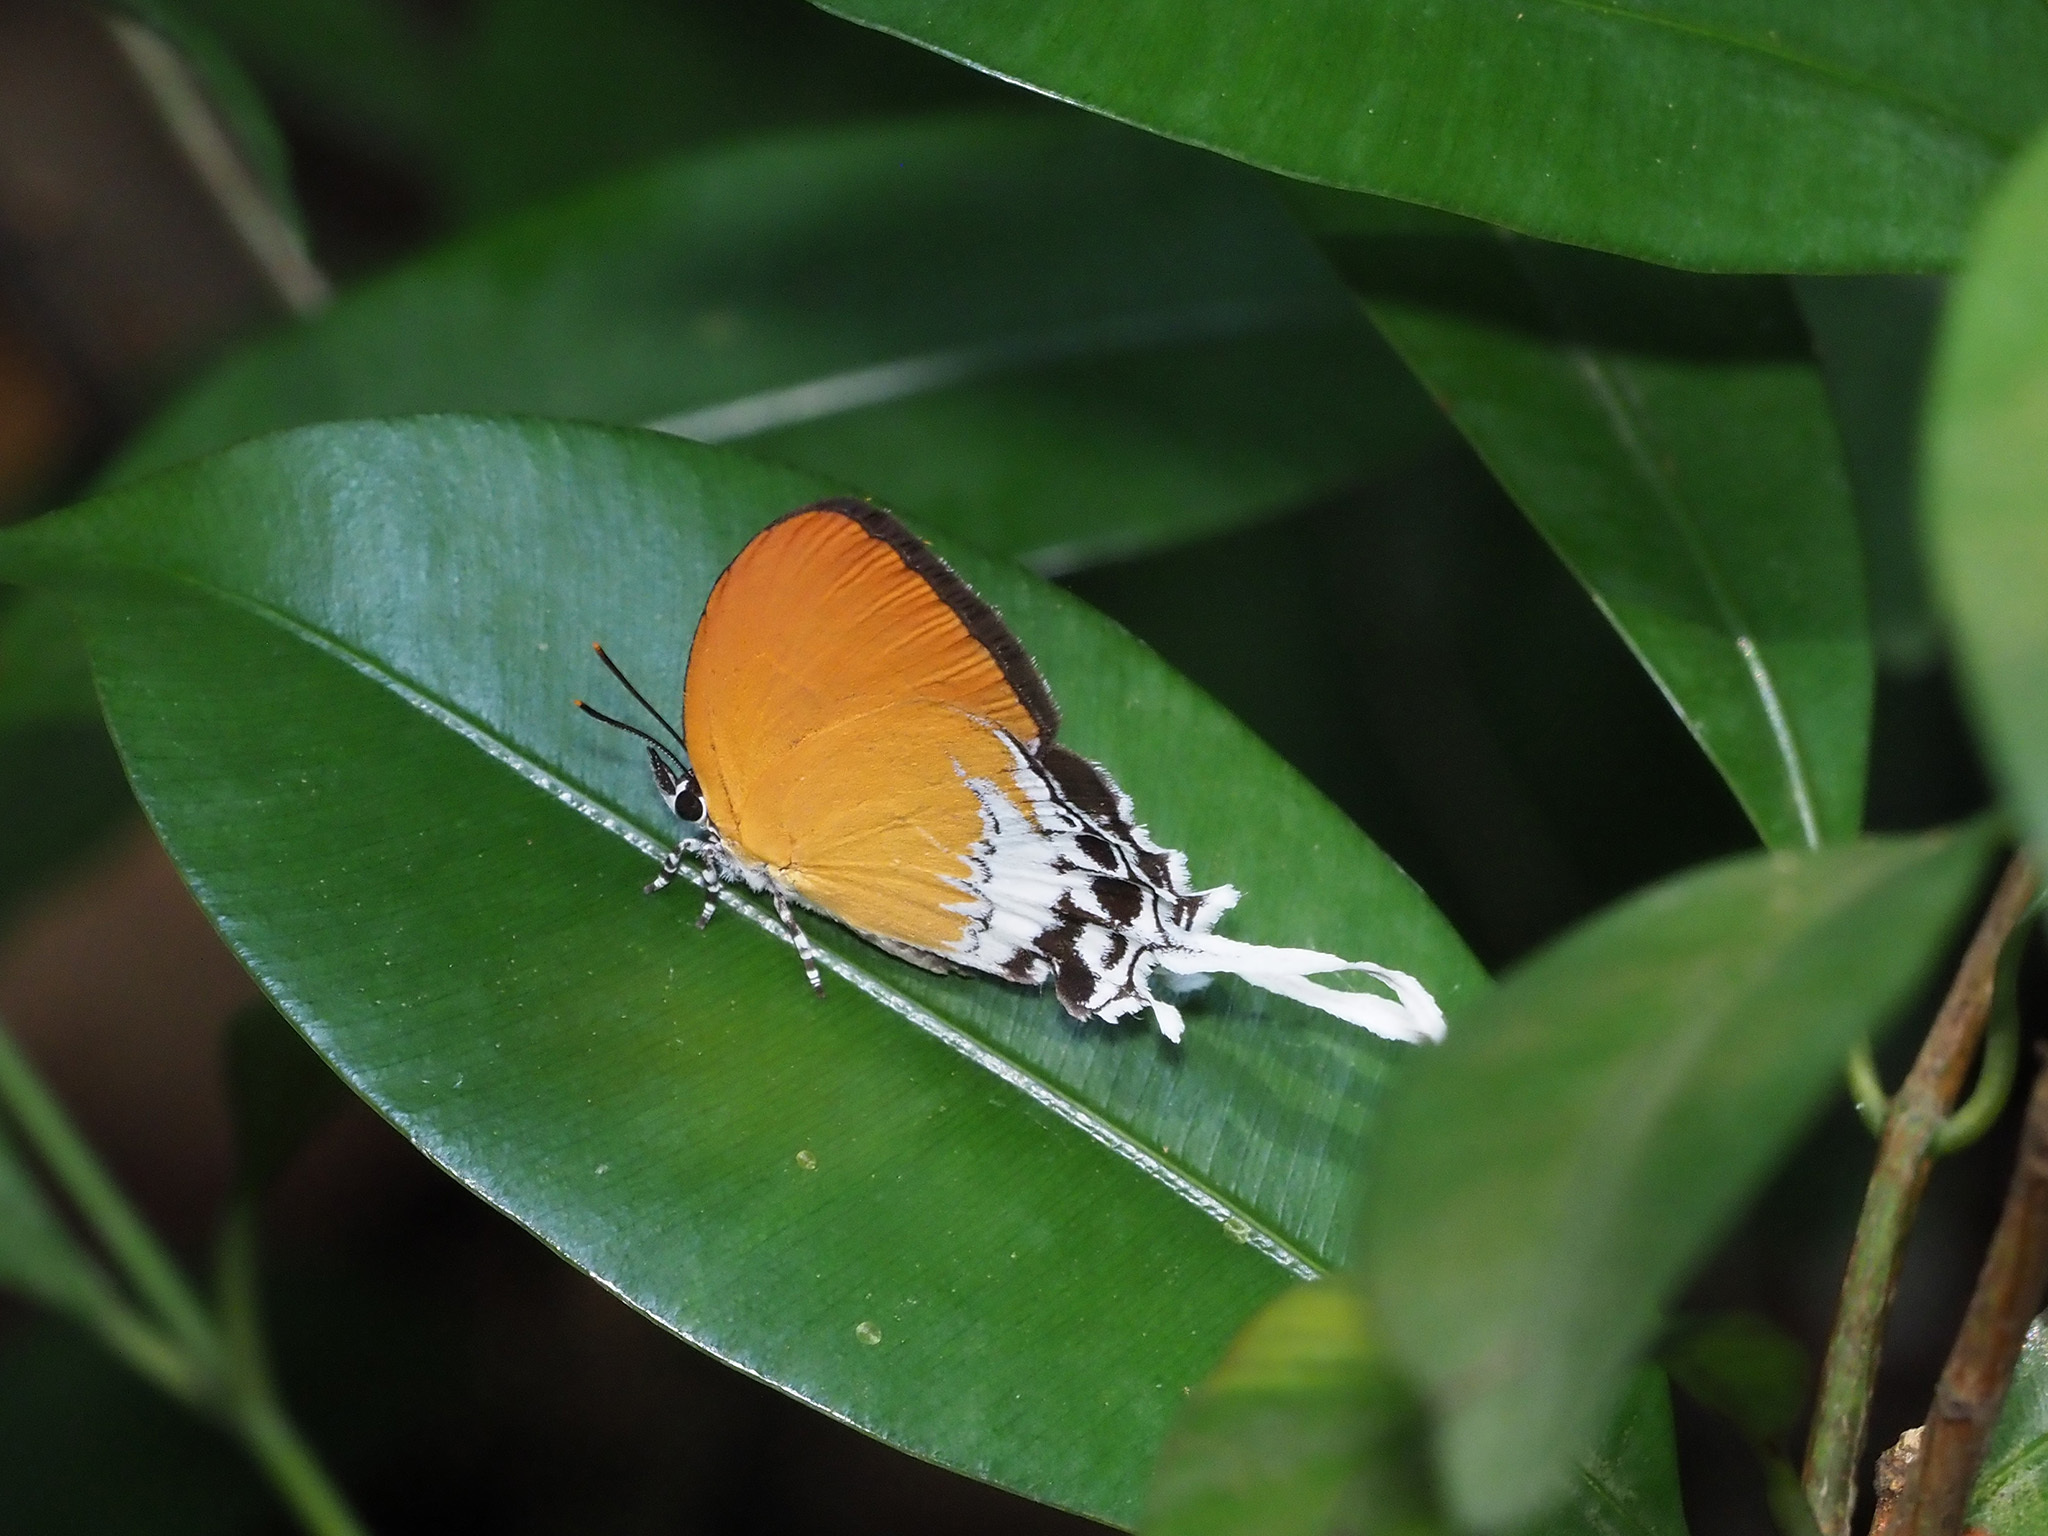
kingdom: Animalia
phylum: Arthropoda
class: Insecta
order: Lepidoptera
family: Lycaenidae
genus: Eooxylides
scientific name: Eooxylides tharis
